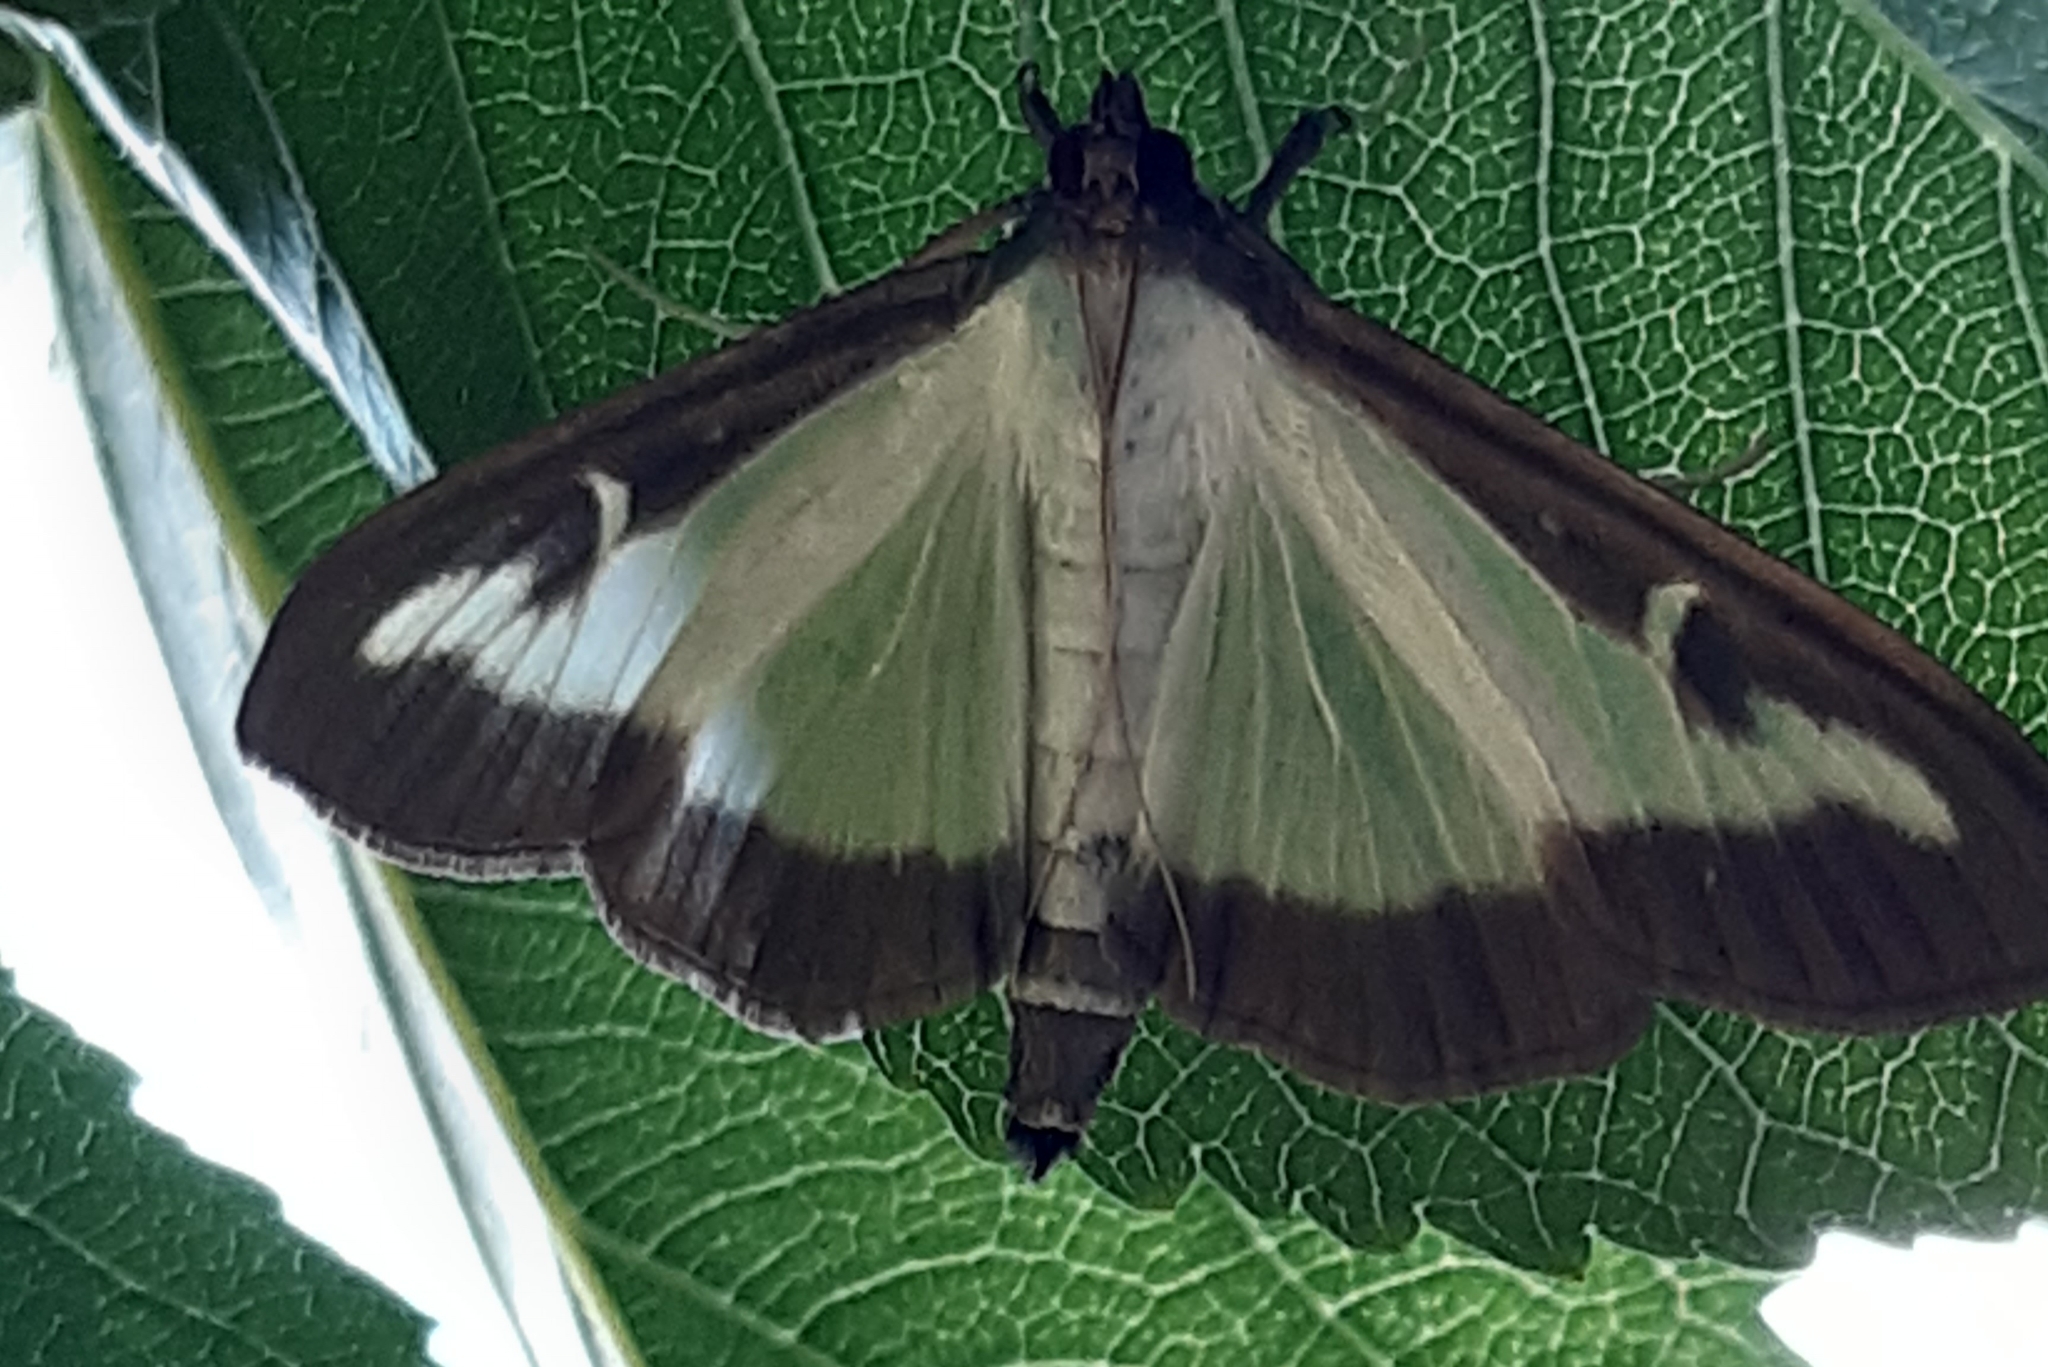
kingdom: Animalia
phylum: Arthropoda
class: Insecta
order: Lepidoptera
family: Crambidae
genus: Cydalima
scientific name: Cydalima perspectalis
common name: Box tree moth
